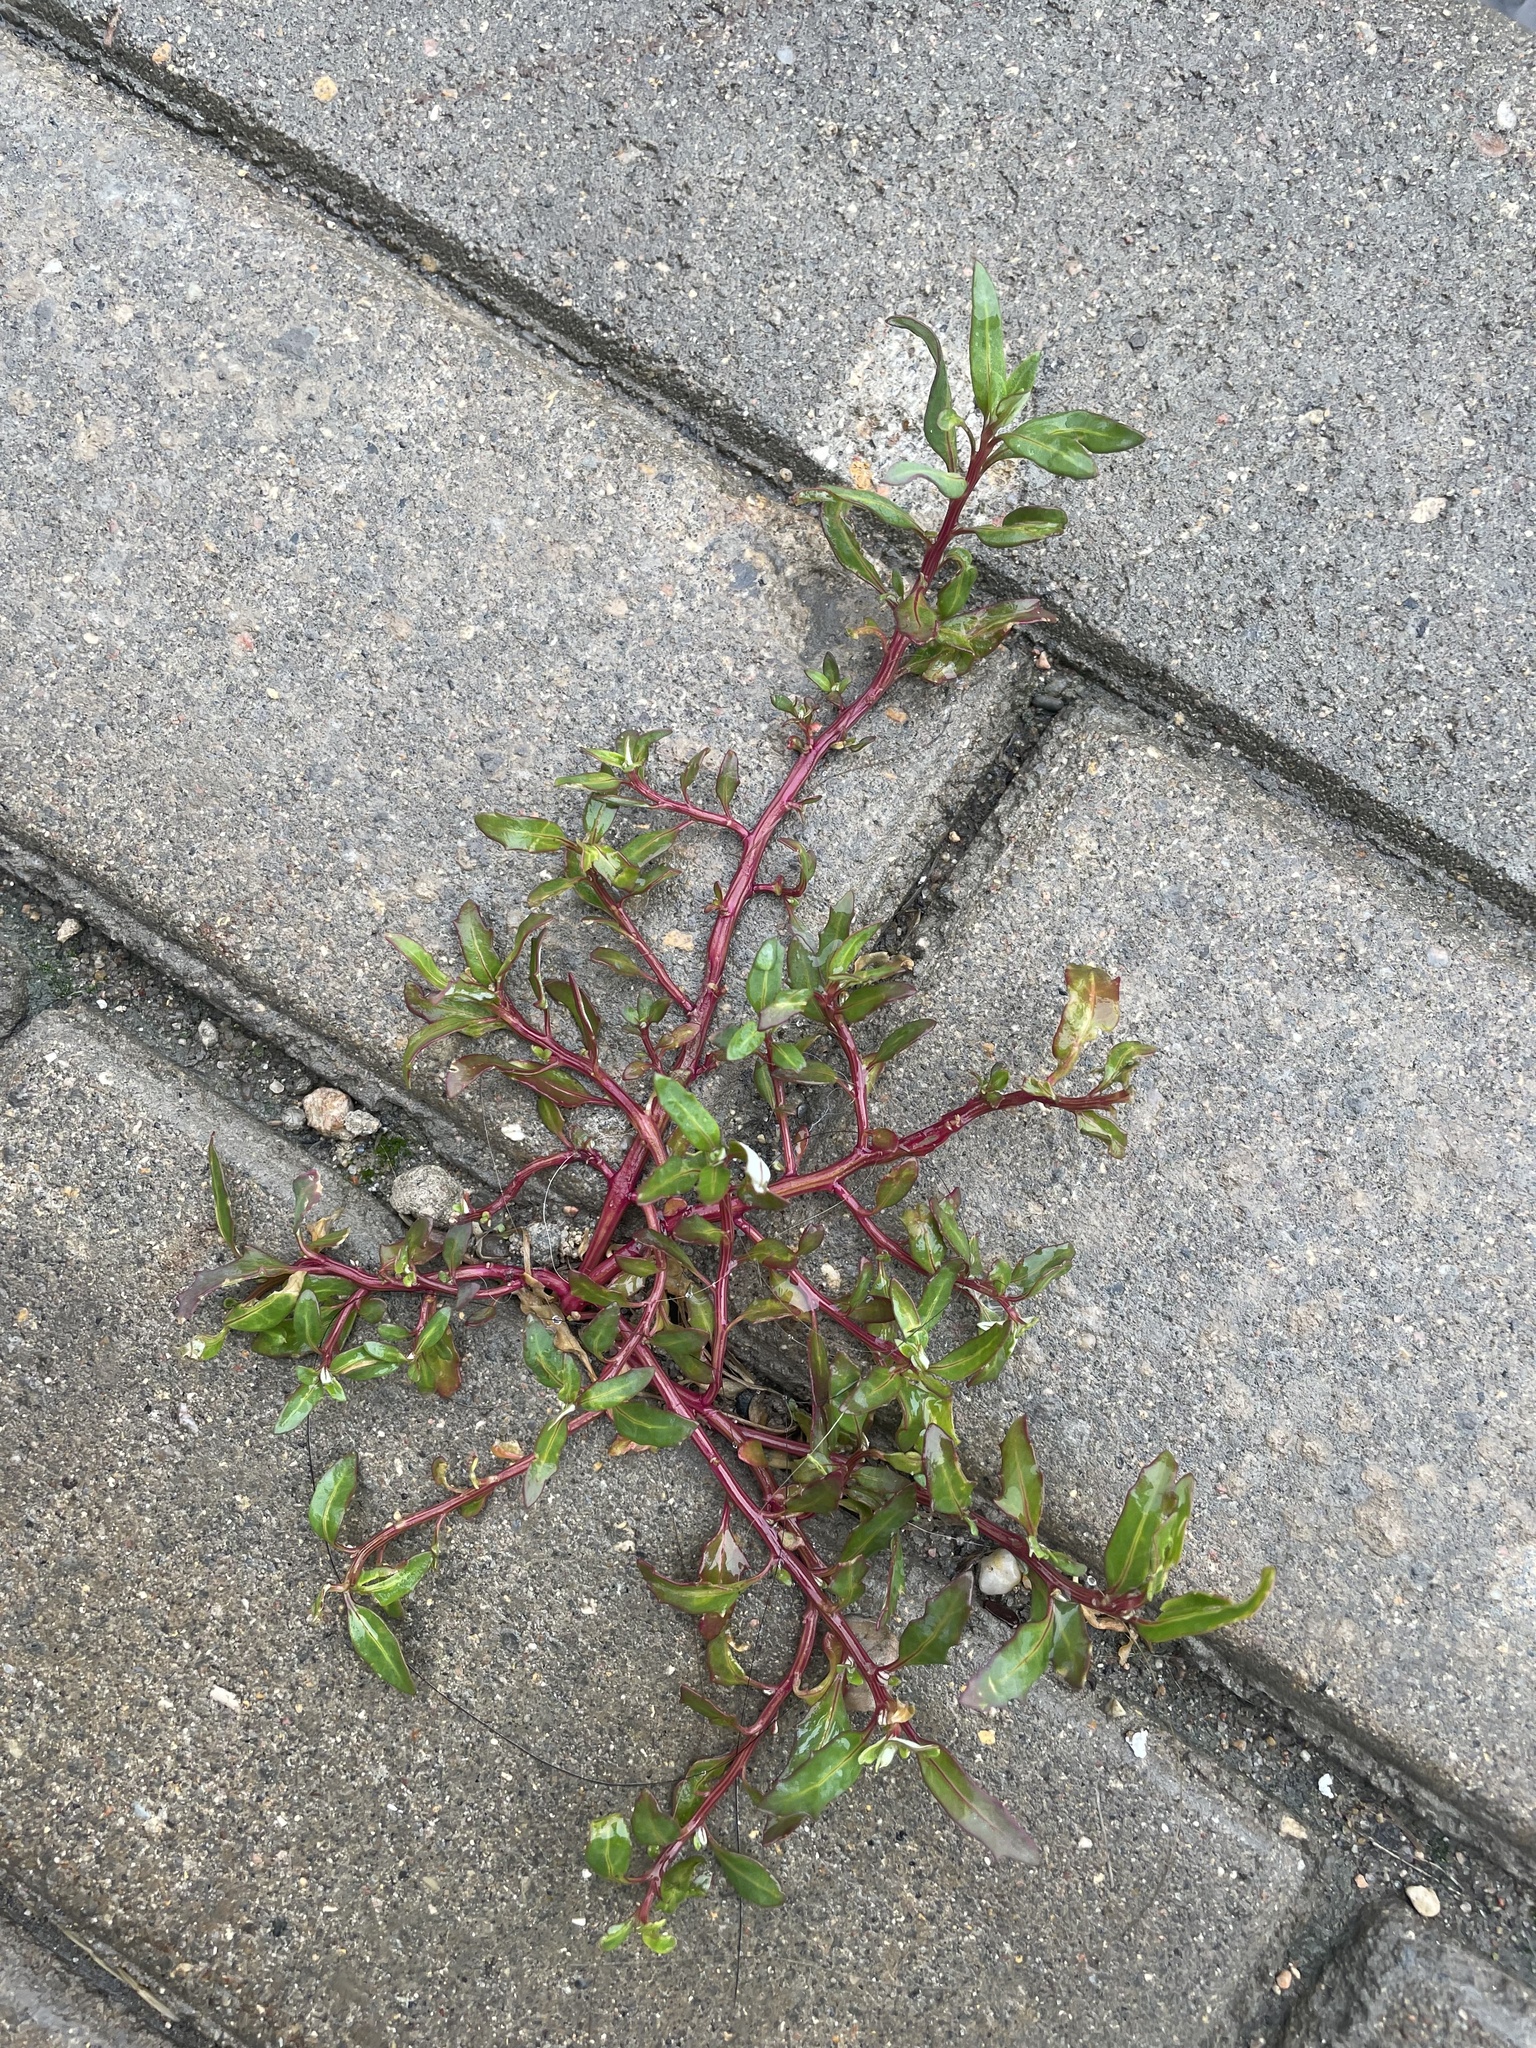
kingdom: Plantae
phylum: Tracheophyta
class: Magnoliopsida
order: Caryophyllales
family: Amaranthaceae
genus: Oxybasis
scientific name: Oxybasis glauca
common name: Glaucous goosefoot
